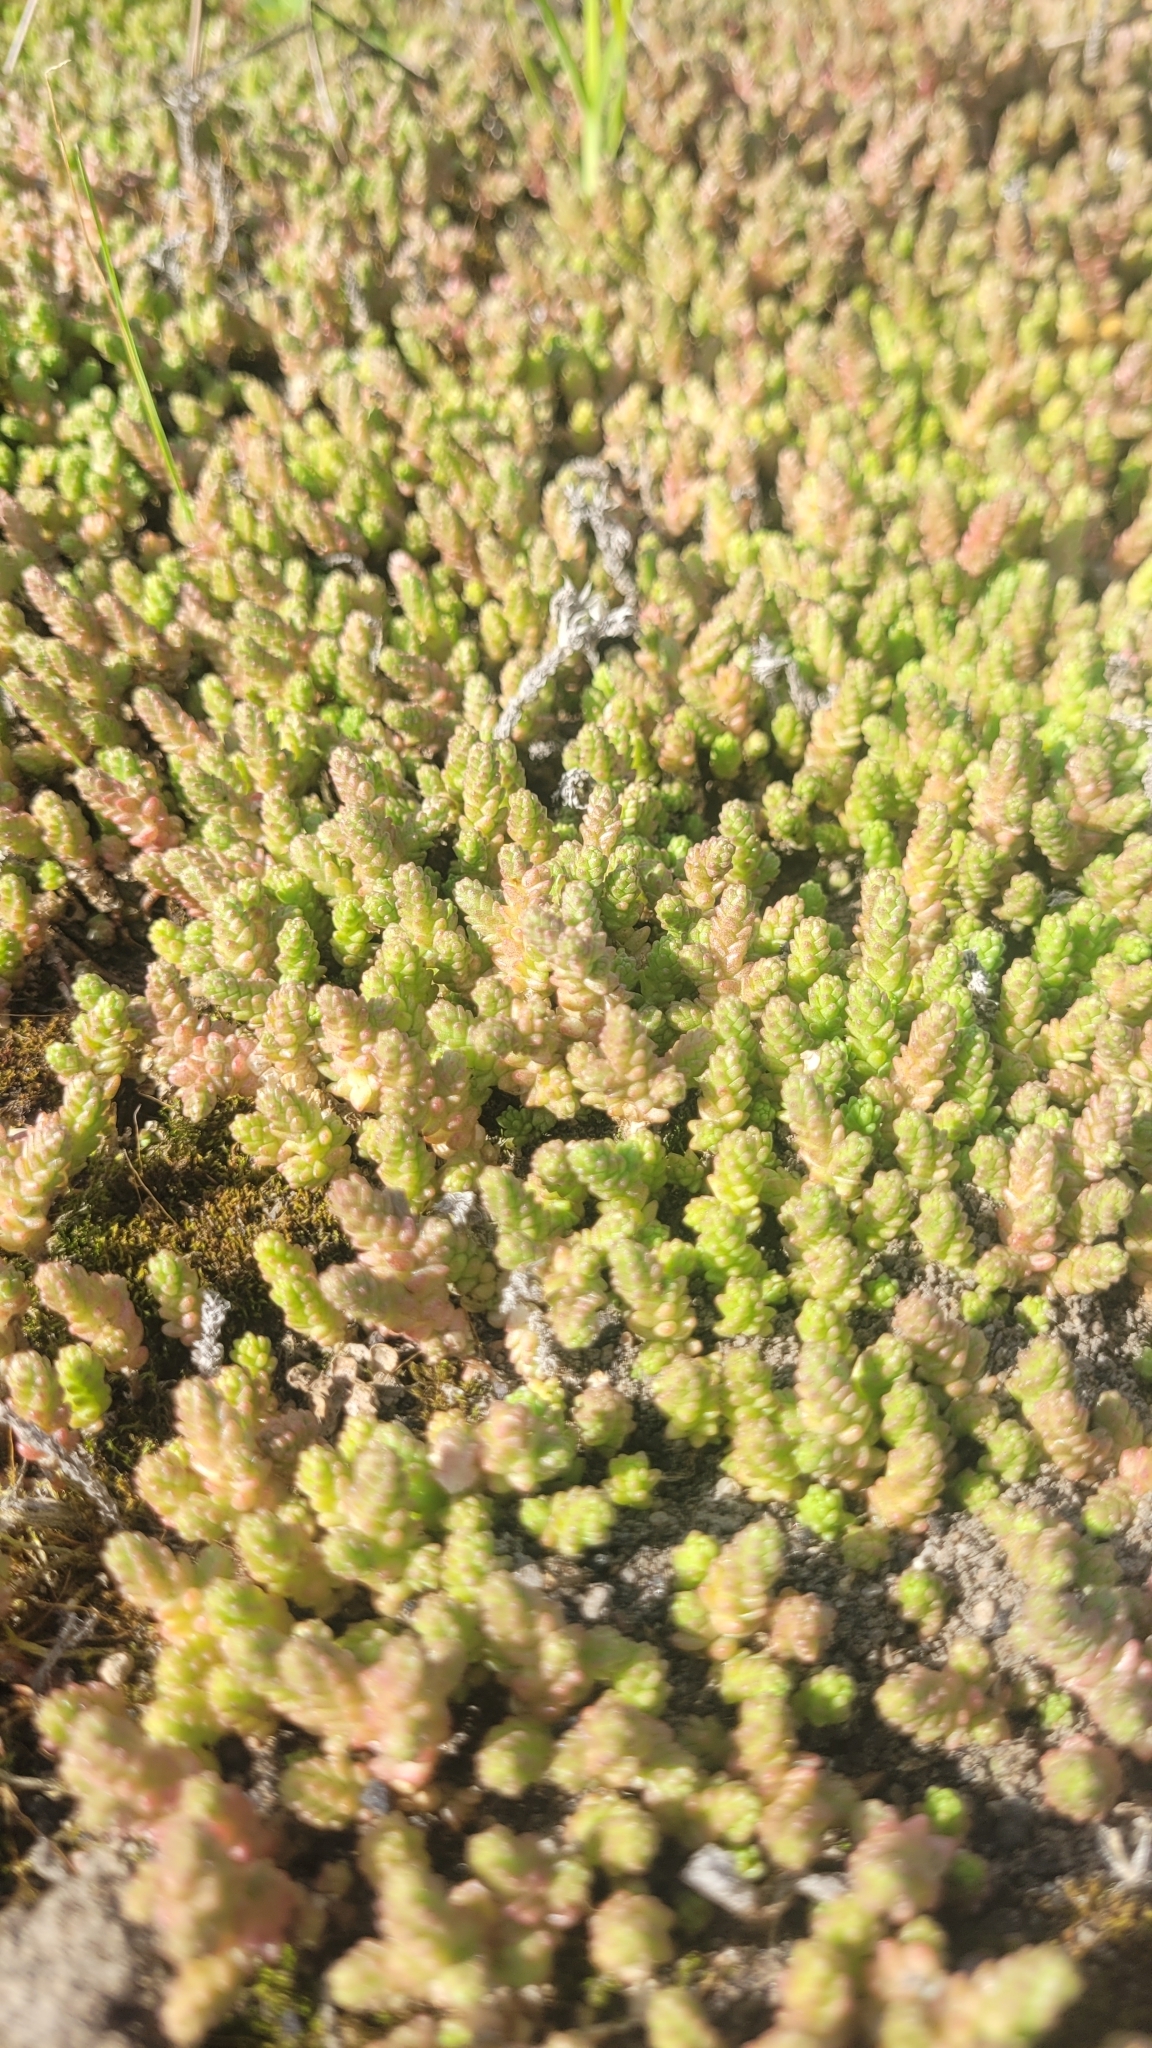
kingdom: Plantae
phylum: Tracheophyta
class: Magnoliopsida
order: Saxifragales
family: Crassulaceae
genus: Sedum
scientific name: Sedum acre
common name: Biting stonecrop
